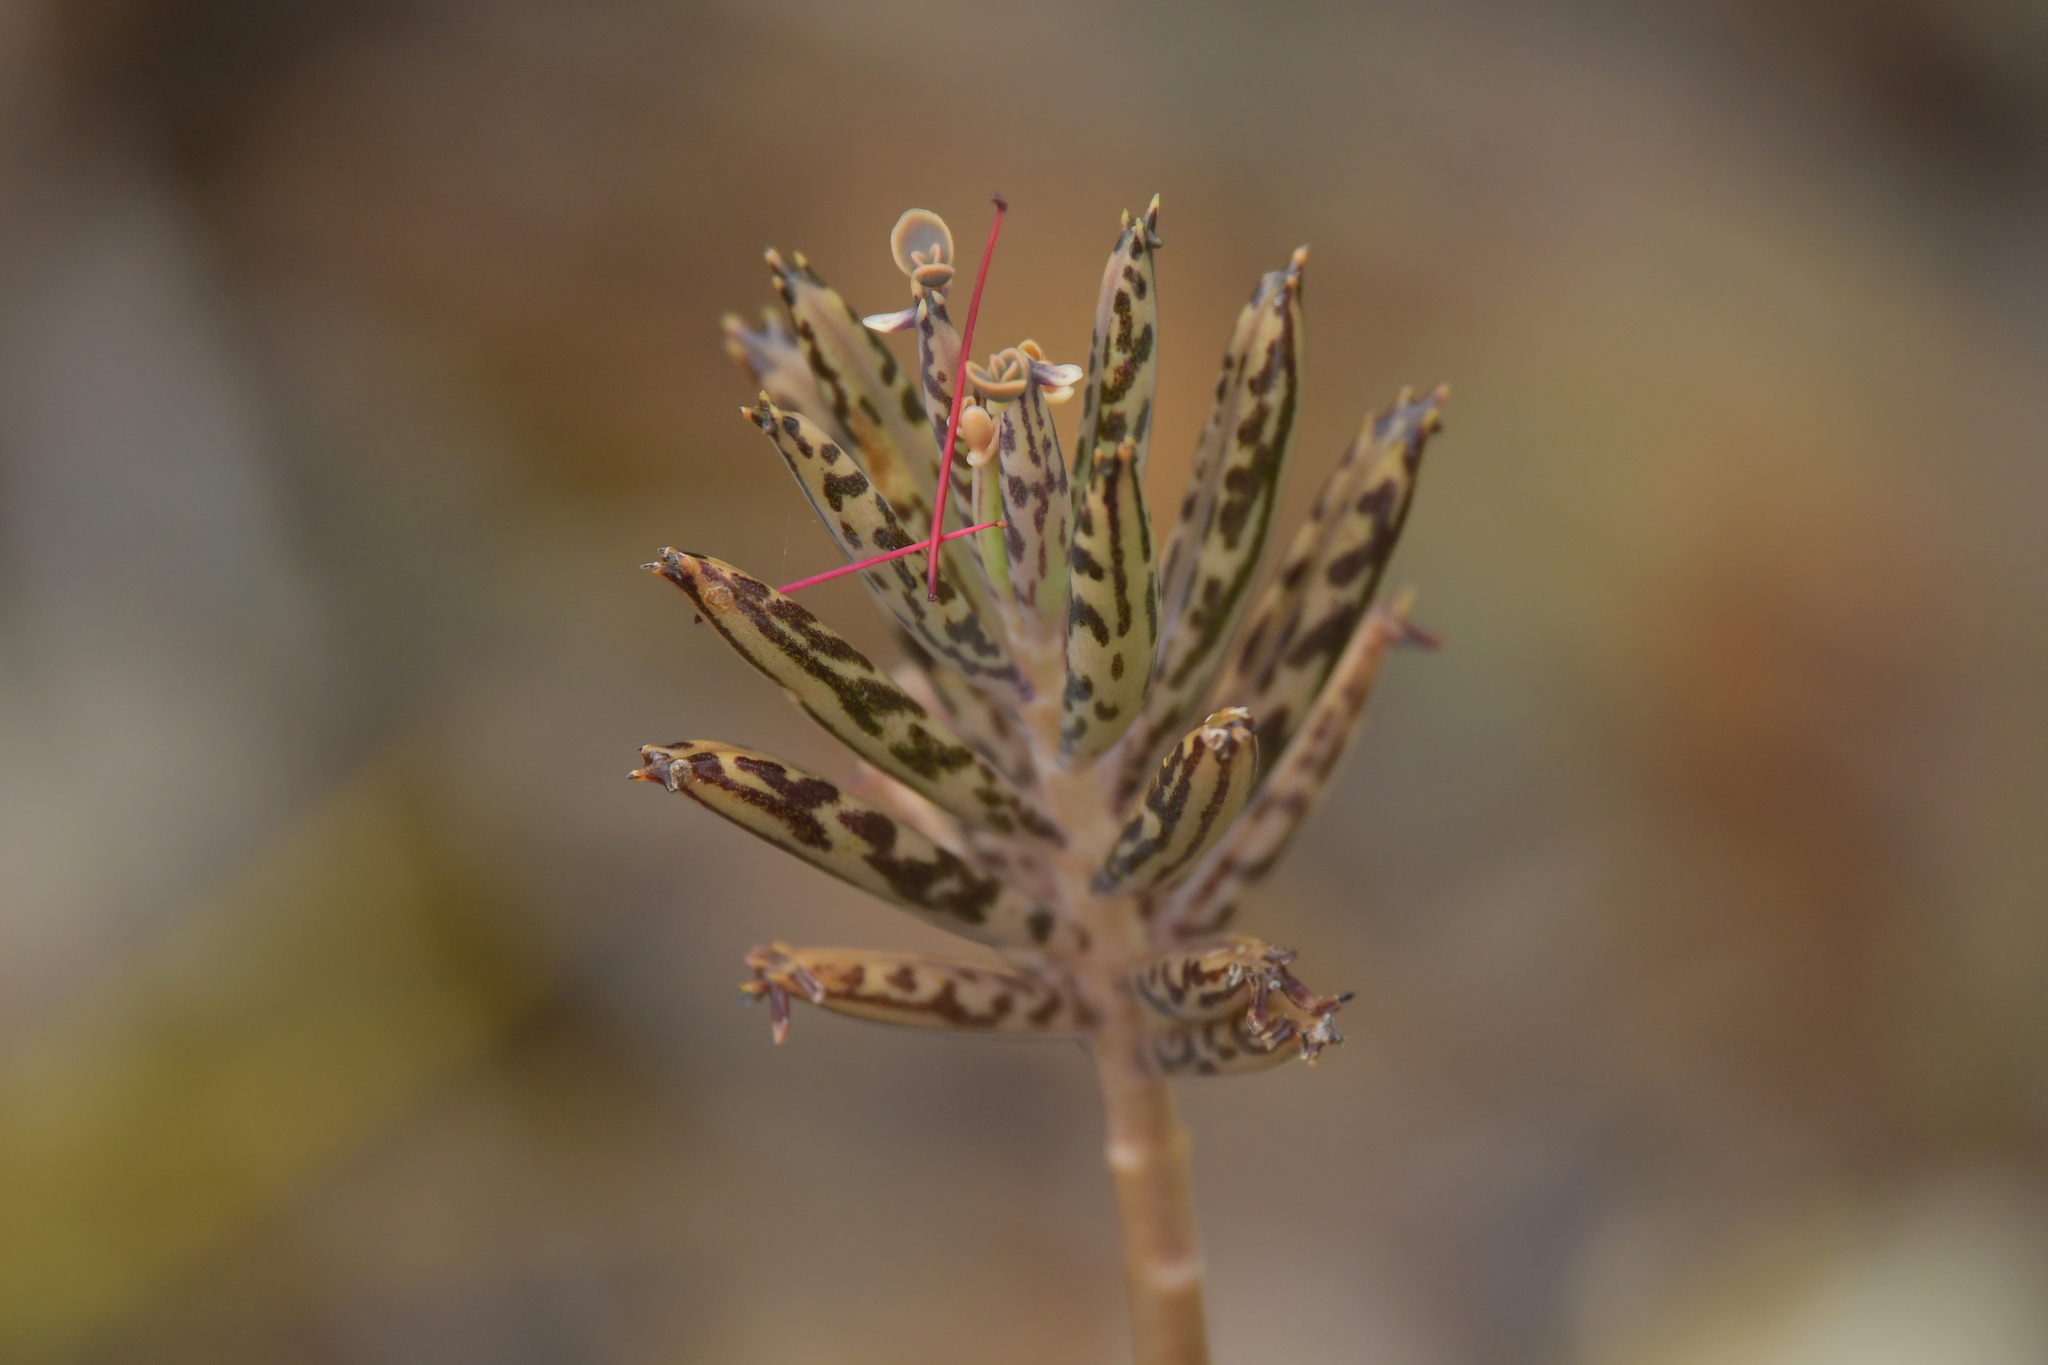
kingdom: Plantae
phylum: Tracheophyta
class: Magnoliopsida
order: Saxifragales
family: Crassulaceae
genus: Kalanchoe
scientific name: Kalanchoe delagoensis
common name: Chandelier plant
